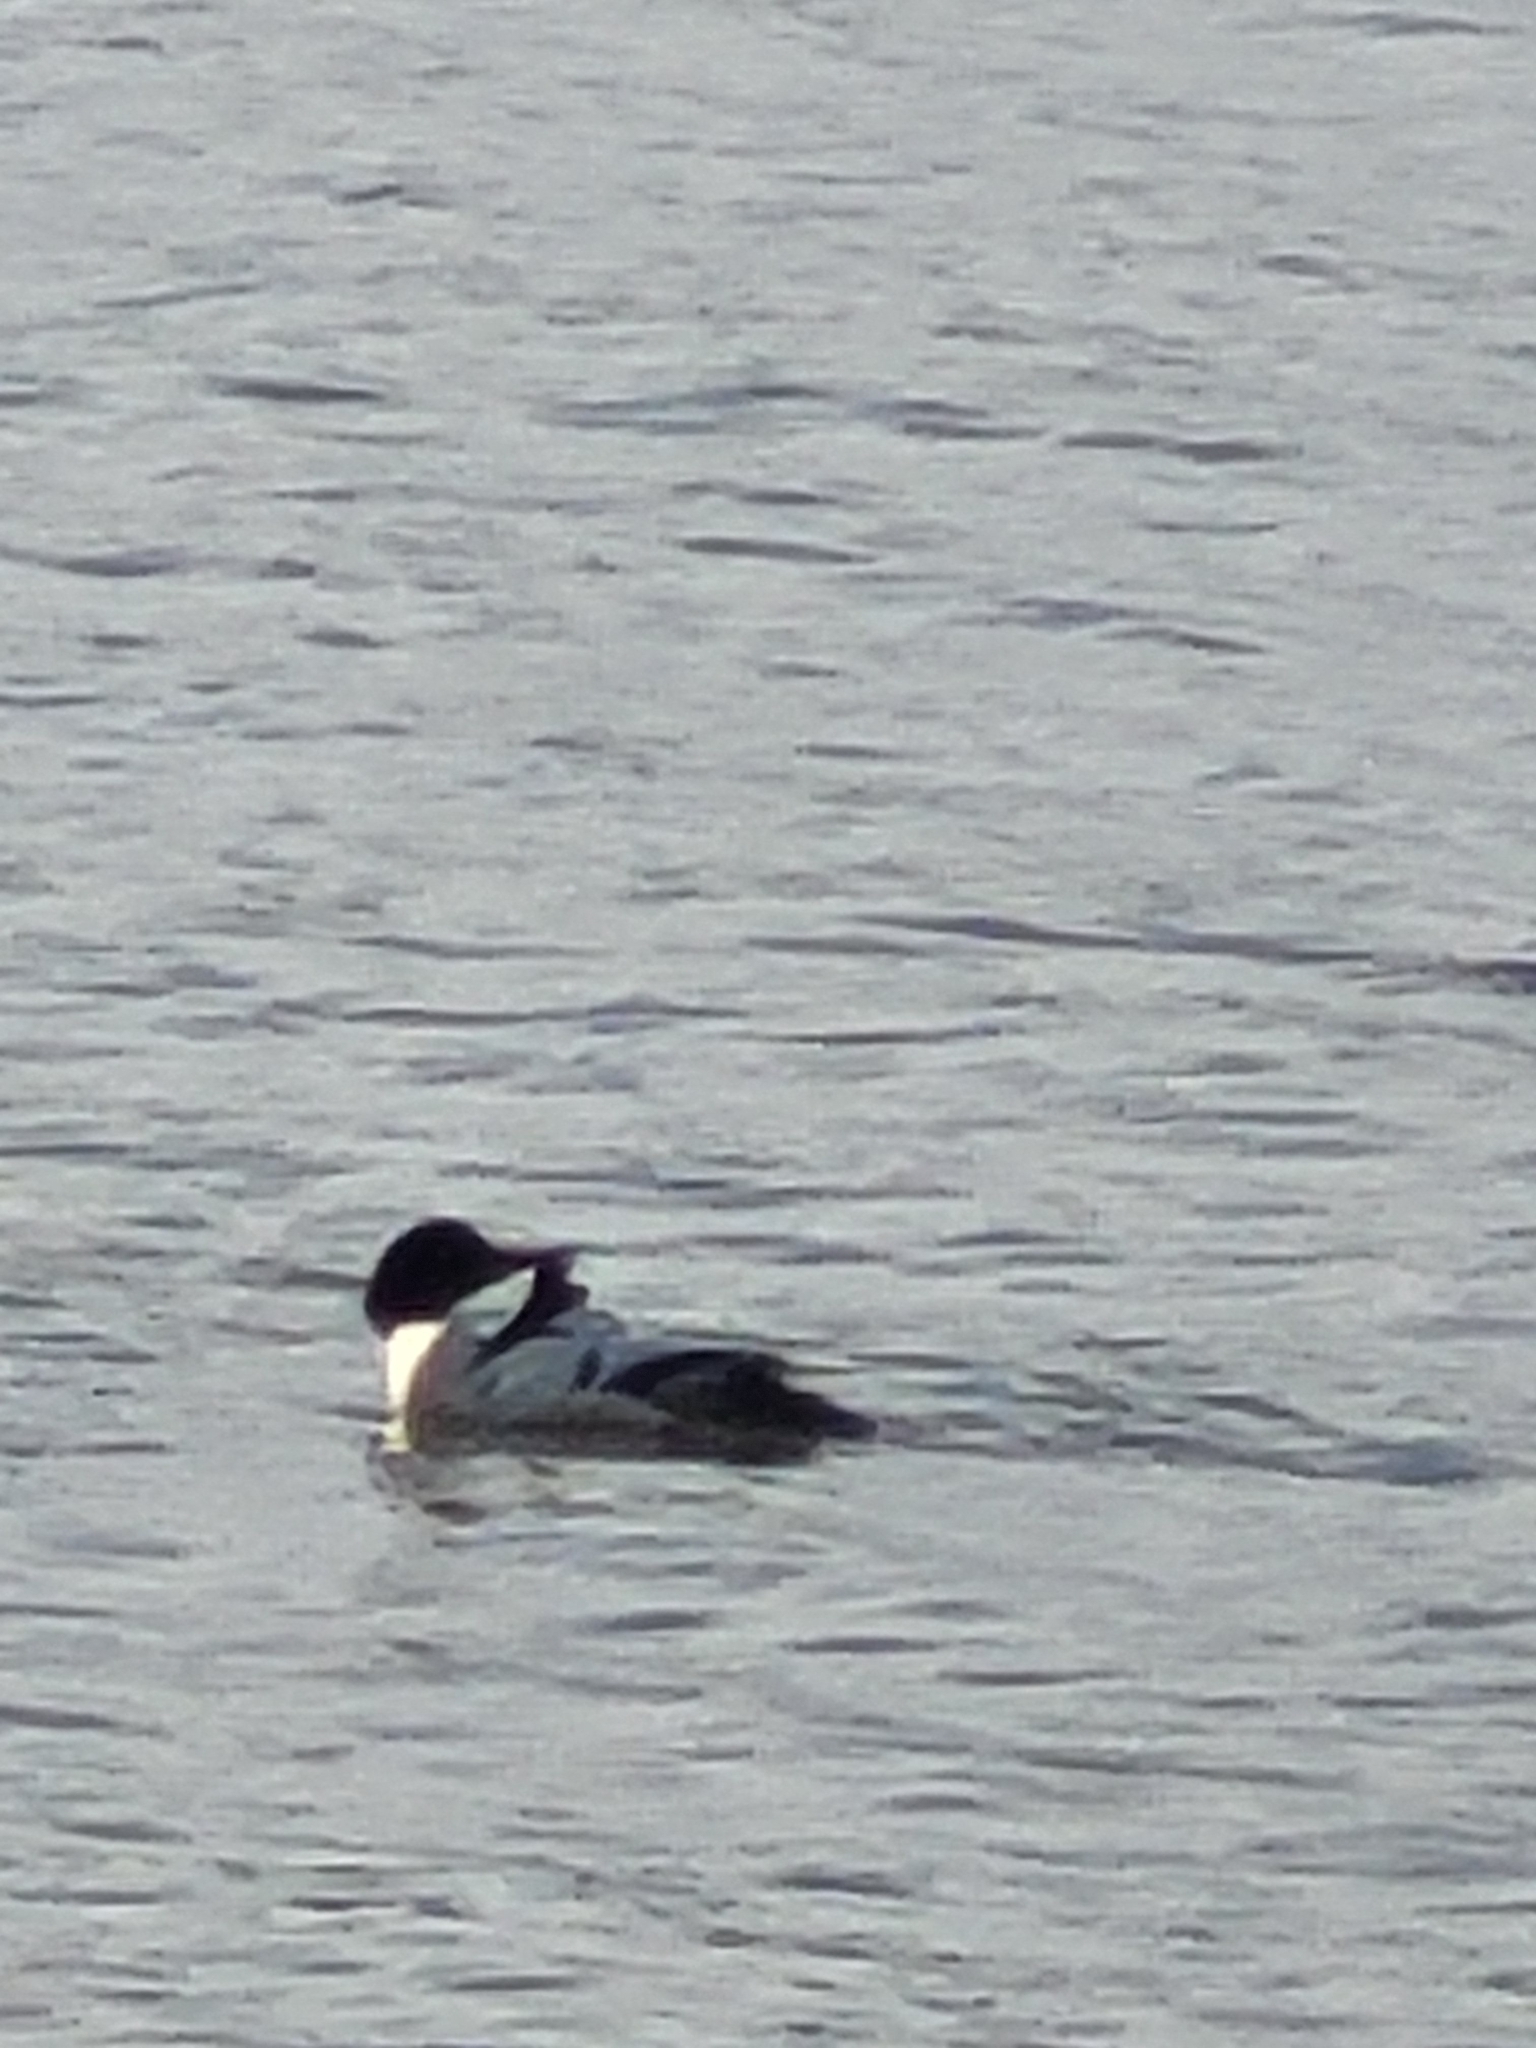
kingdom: Animalia
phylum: Chordata
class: Aves
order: Anseriformes
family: Anatidae
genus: Mergus
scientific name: Mergus merganser
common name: Common merganser
